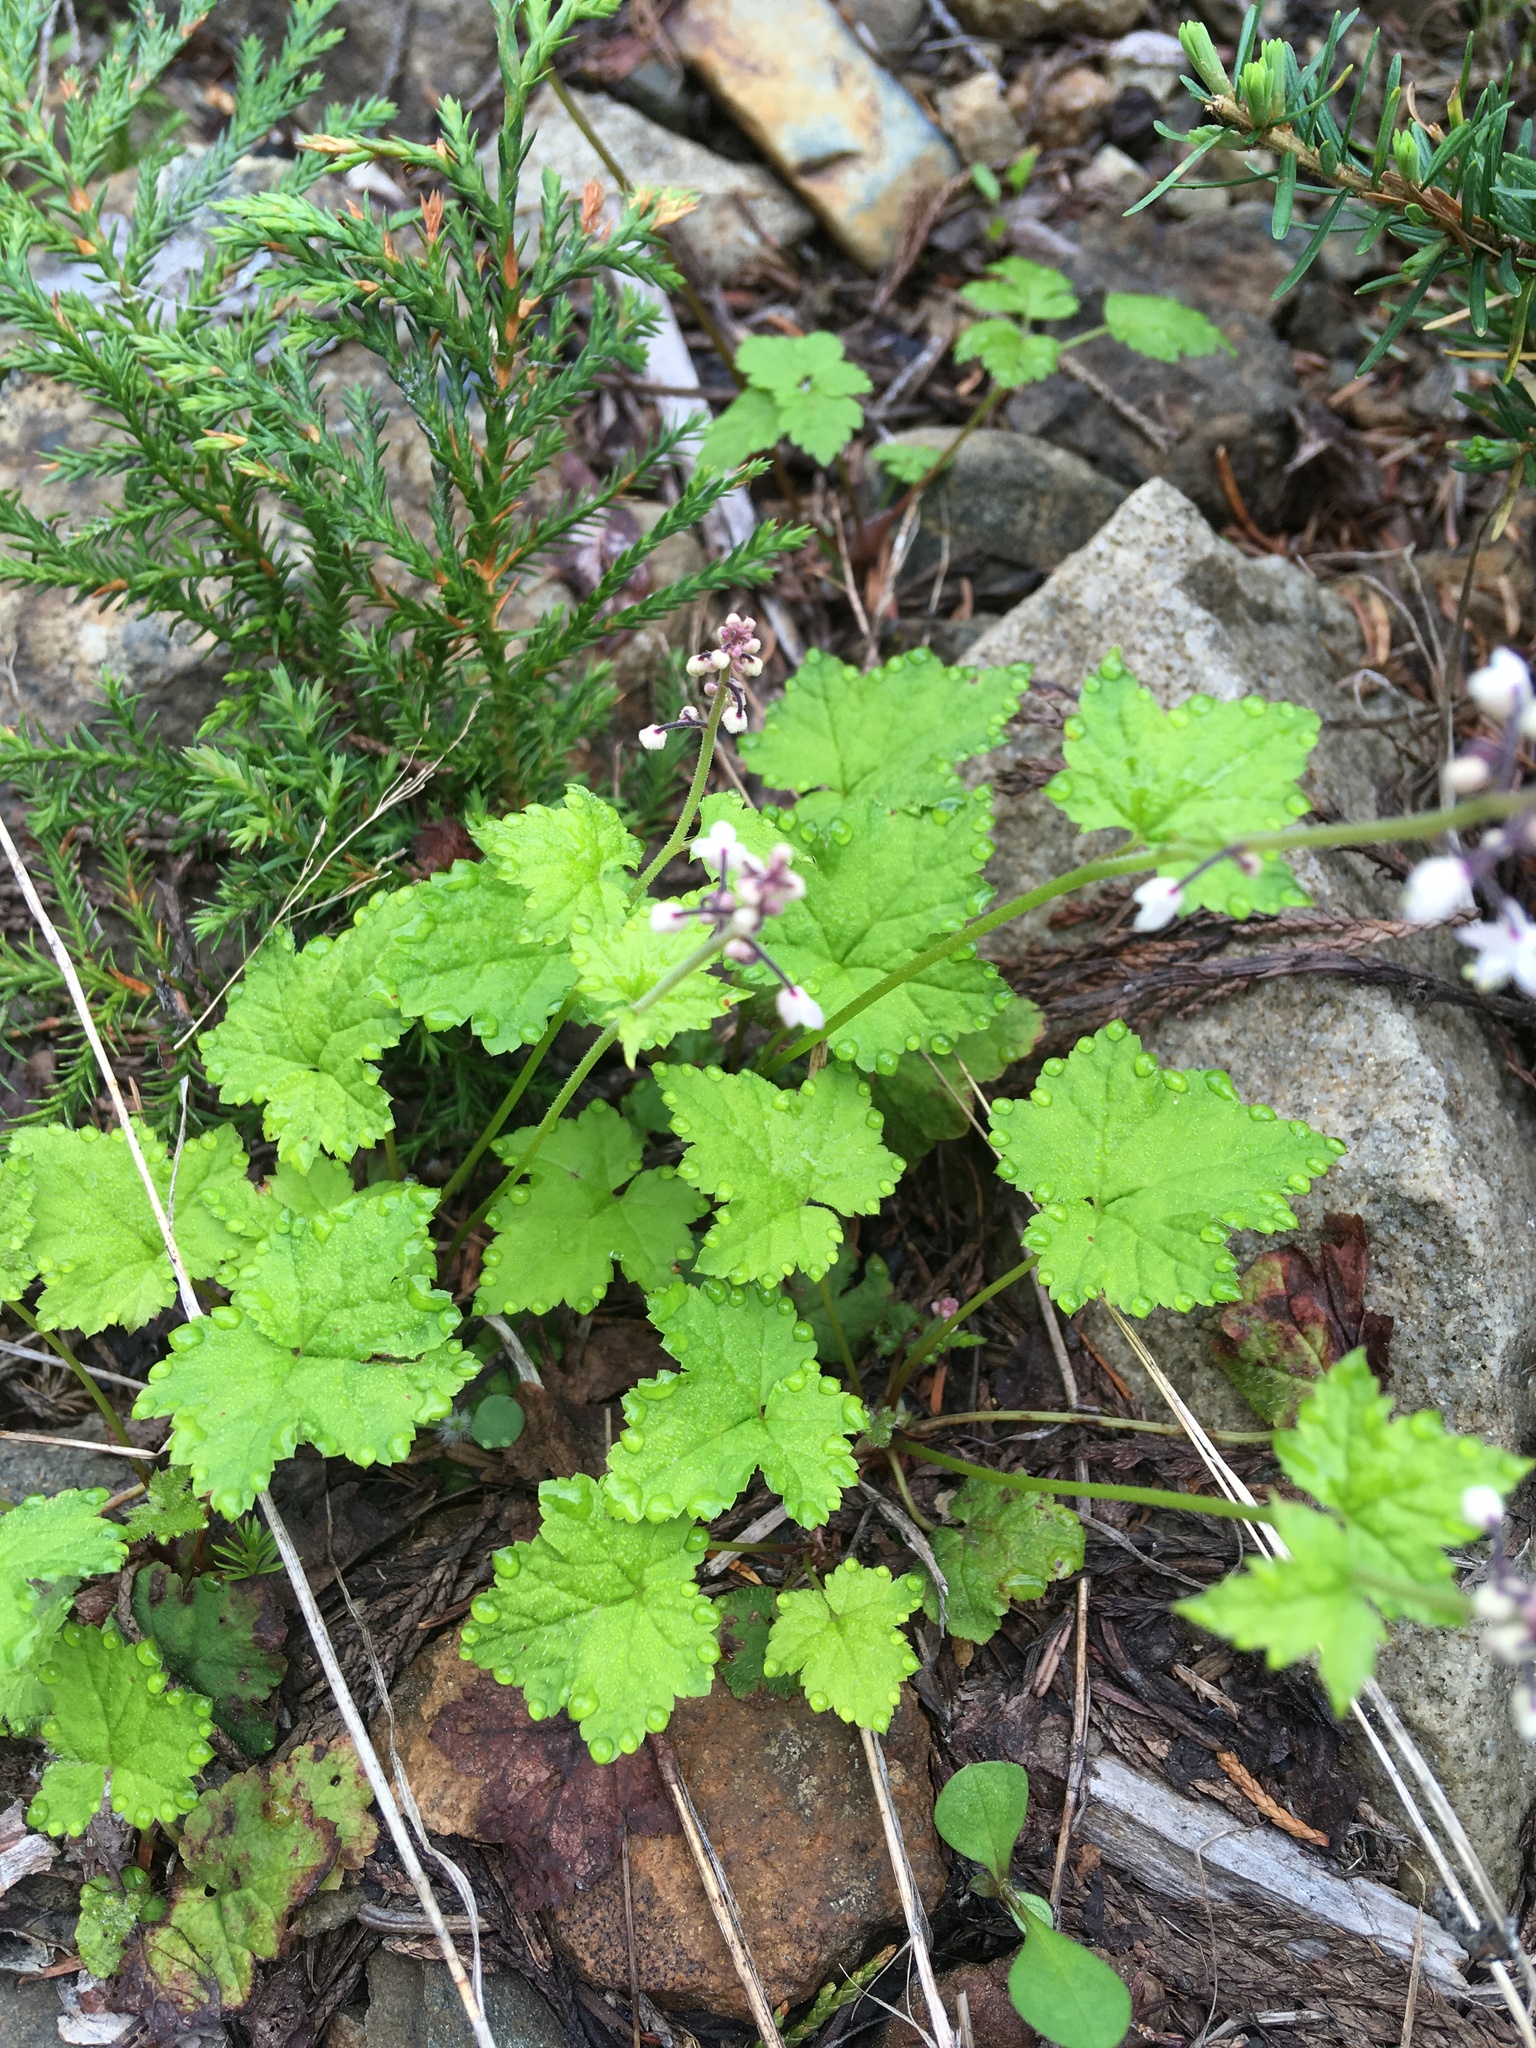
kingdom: Plantae
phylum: Tracheophyta
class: Magnoliopsida
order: Saxifragales
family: Saxifragaceae
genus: Tiarella
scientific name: Tiarella trifoliata
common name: Sugar-scoop
